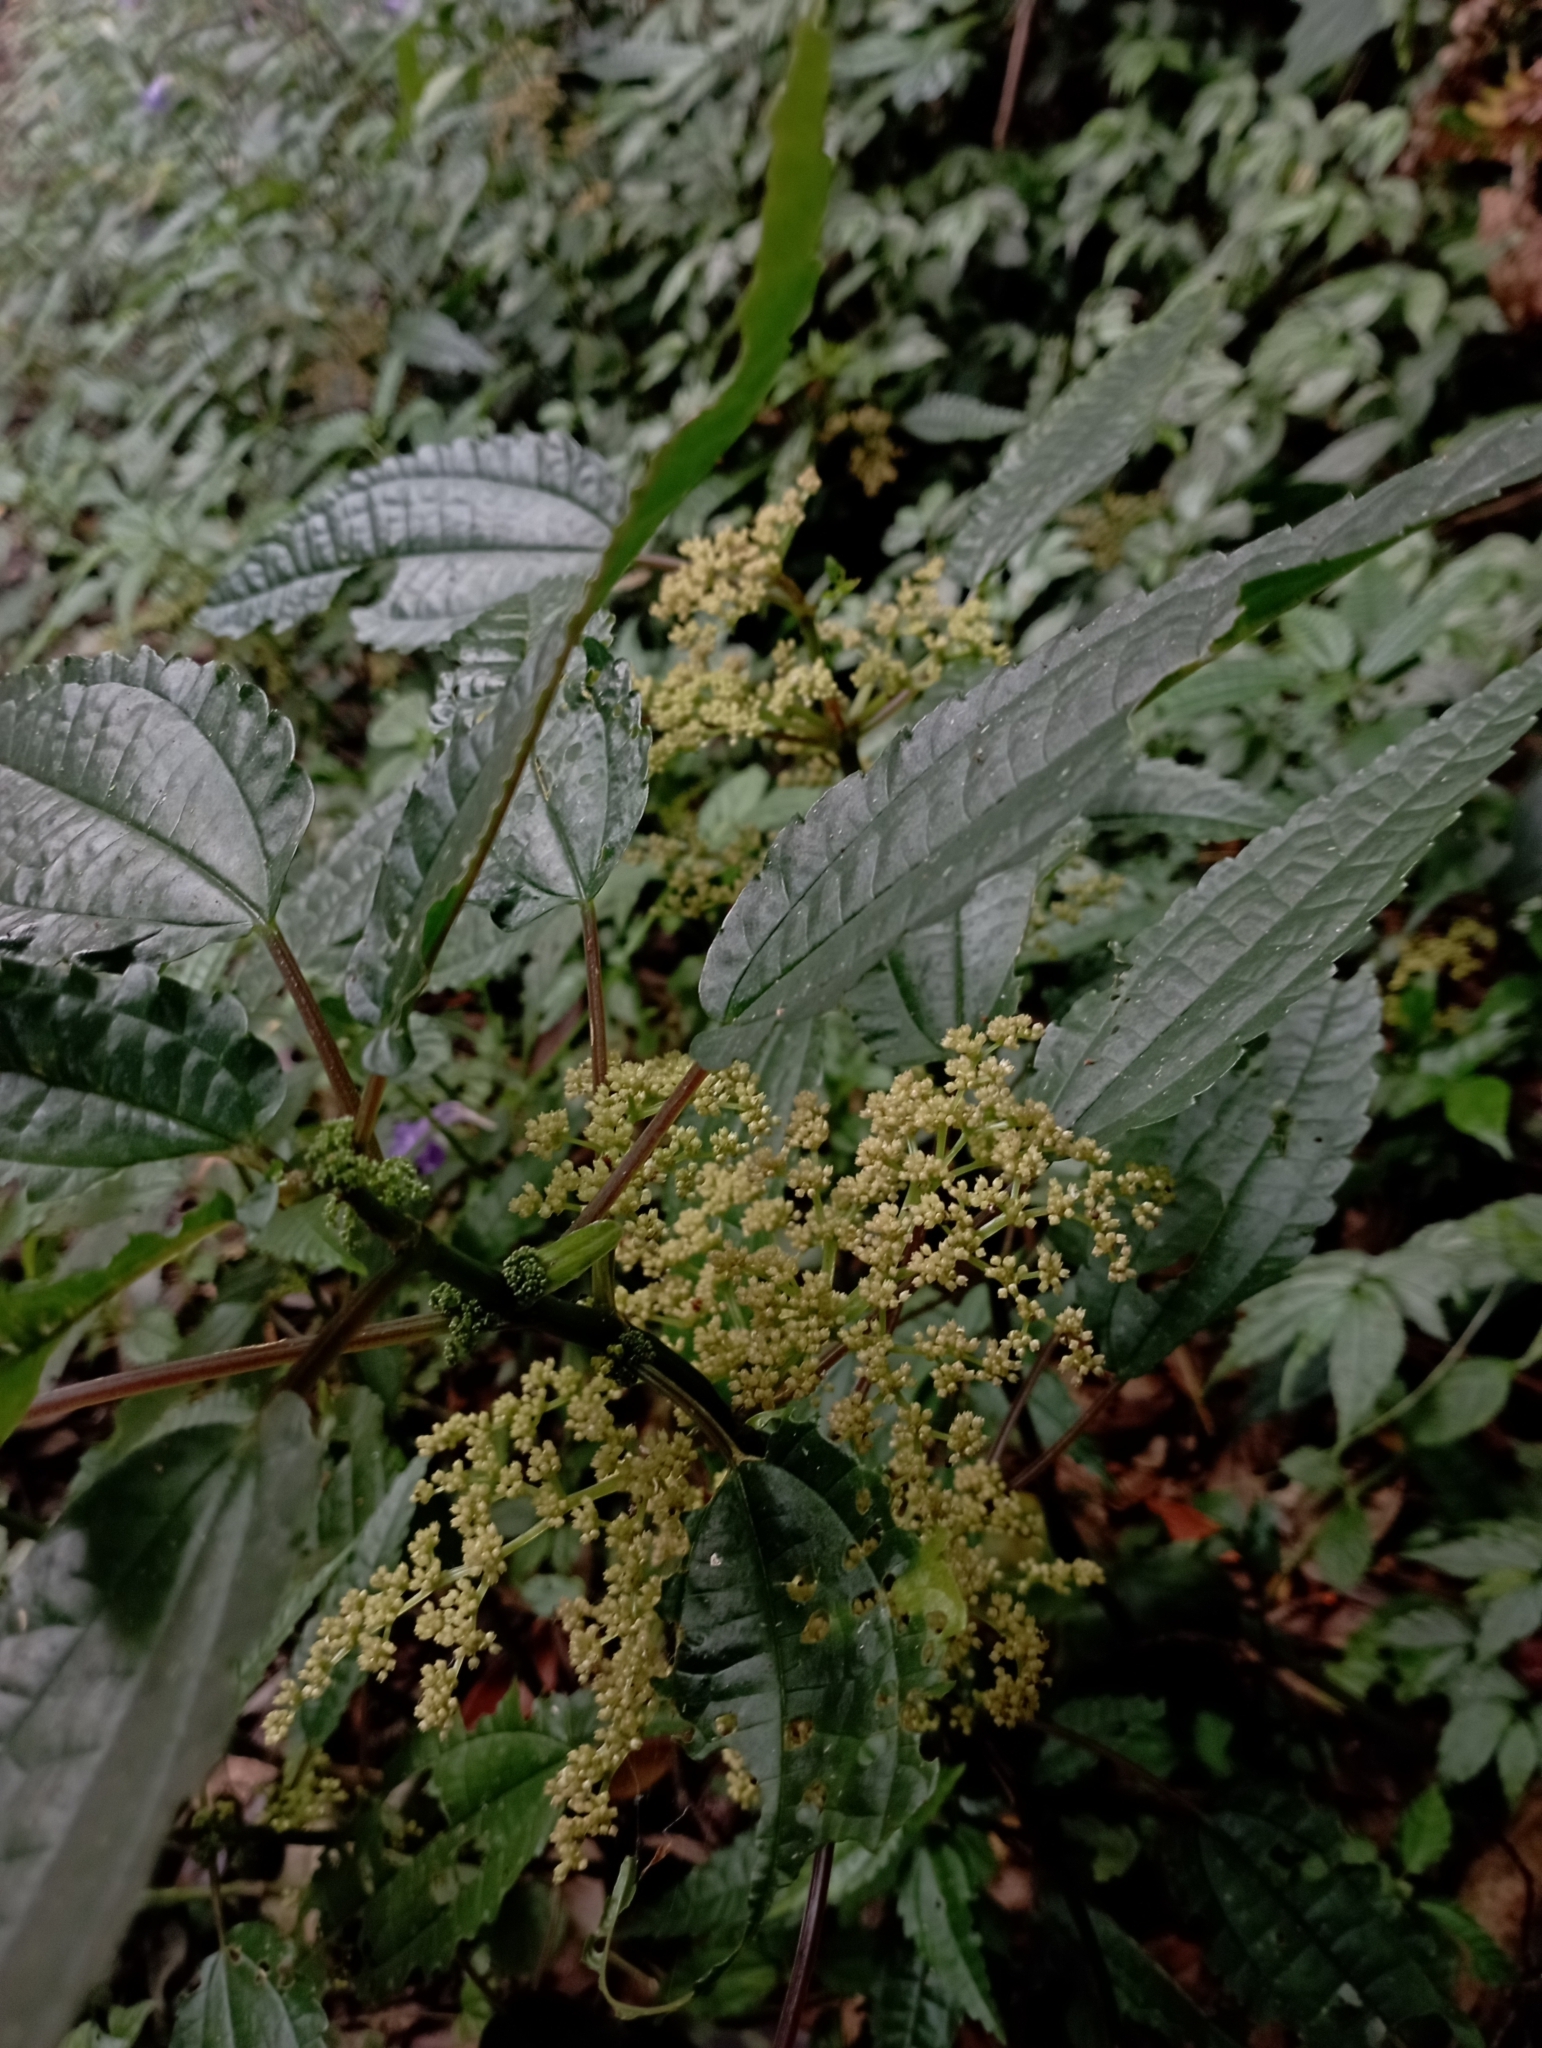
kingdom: Plantae
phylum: Tracheophyta
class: Magnoliopsida
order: Rosales
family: Urticaceae
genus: Pilea
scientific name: Pilea angulata
